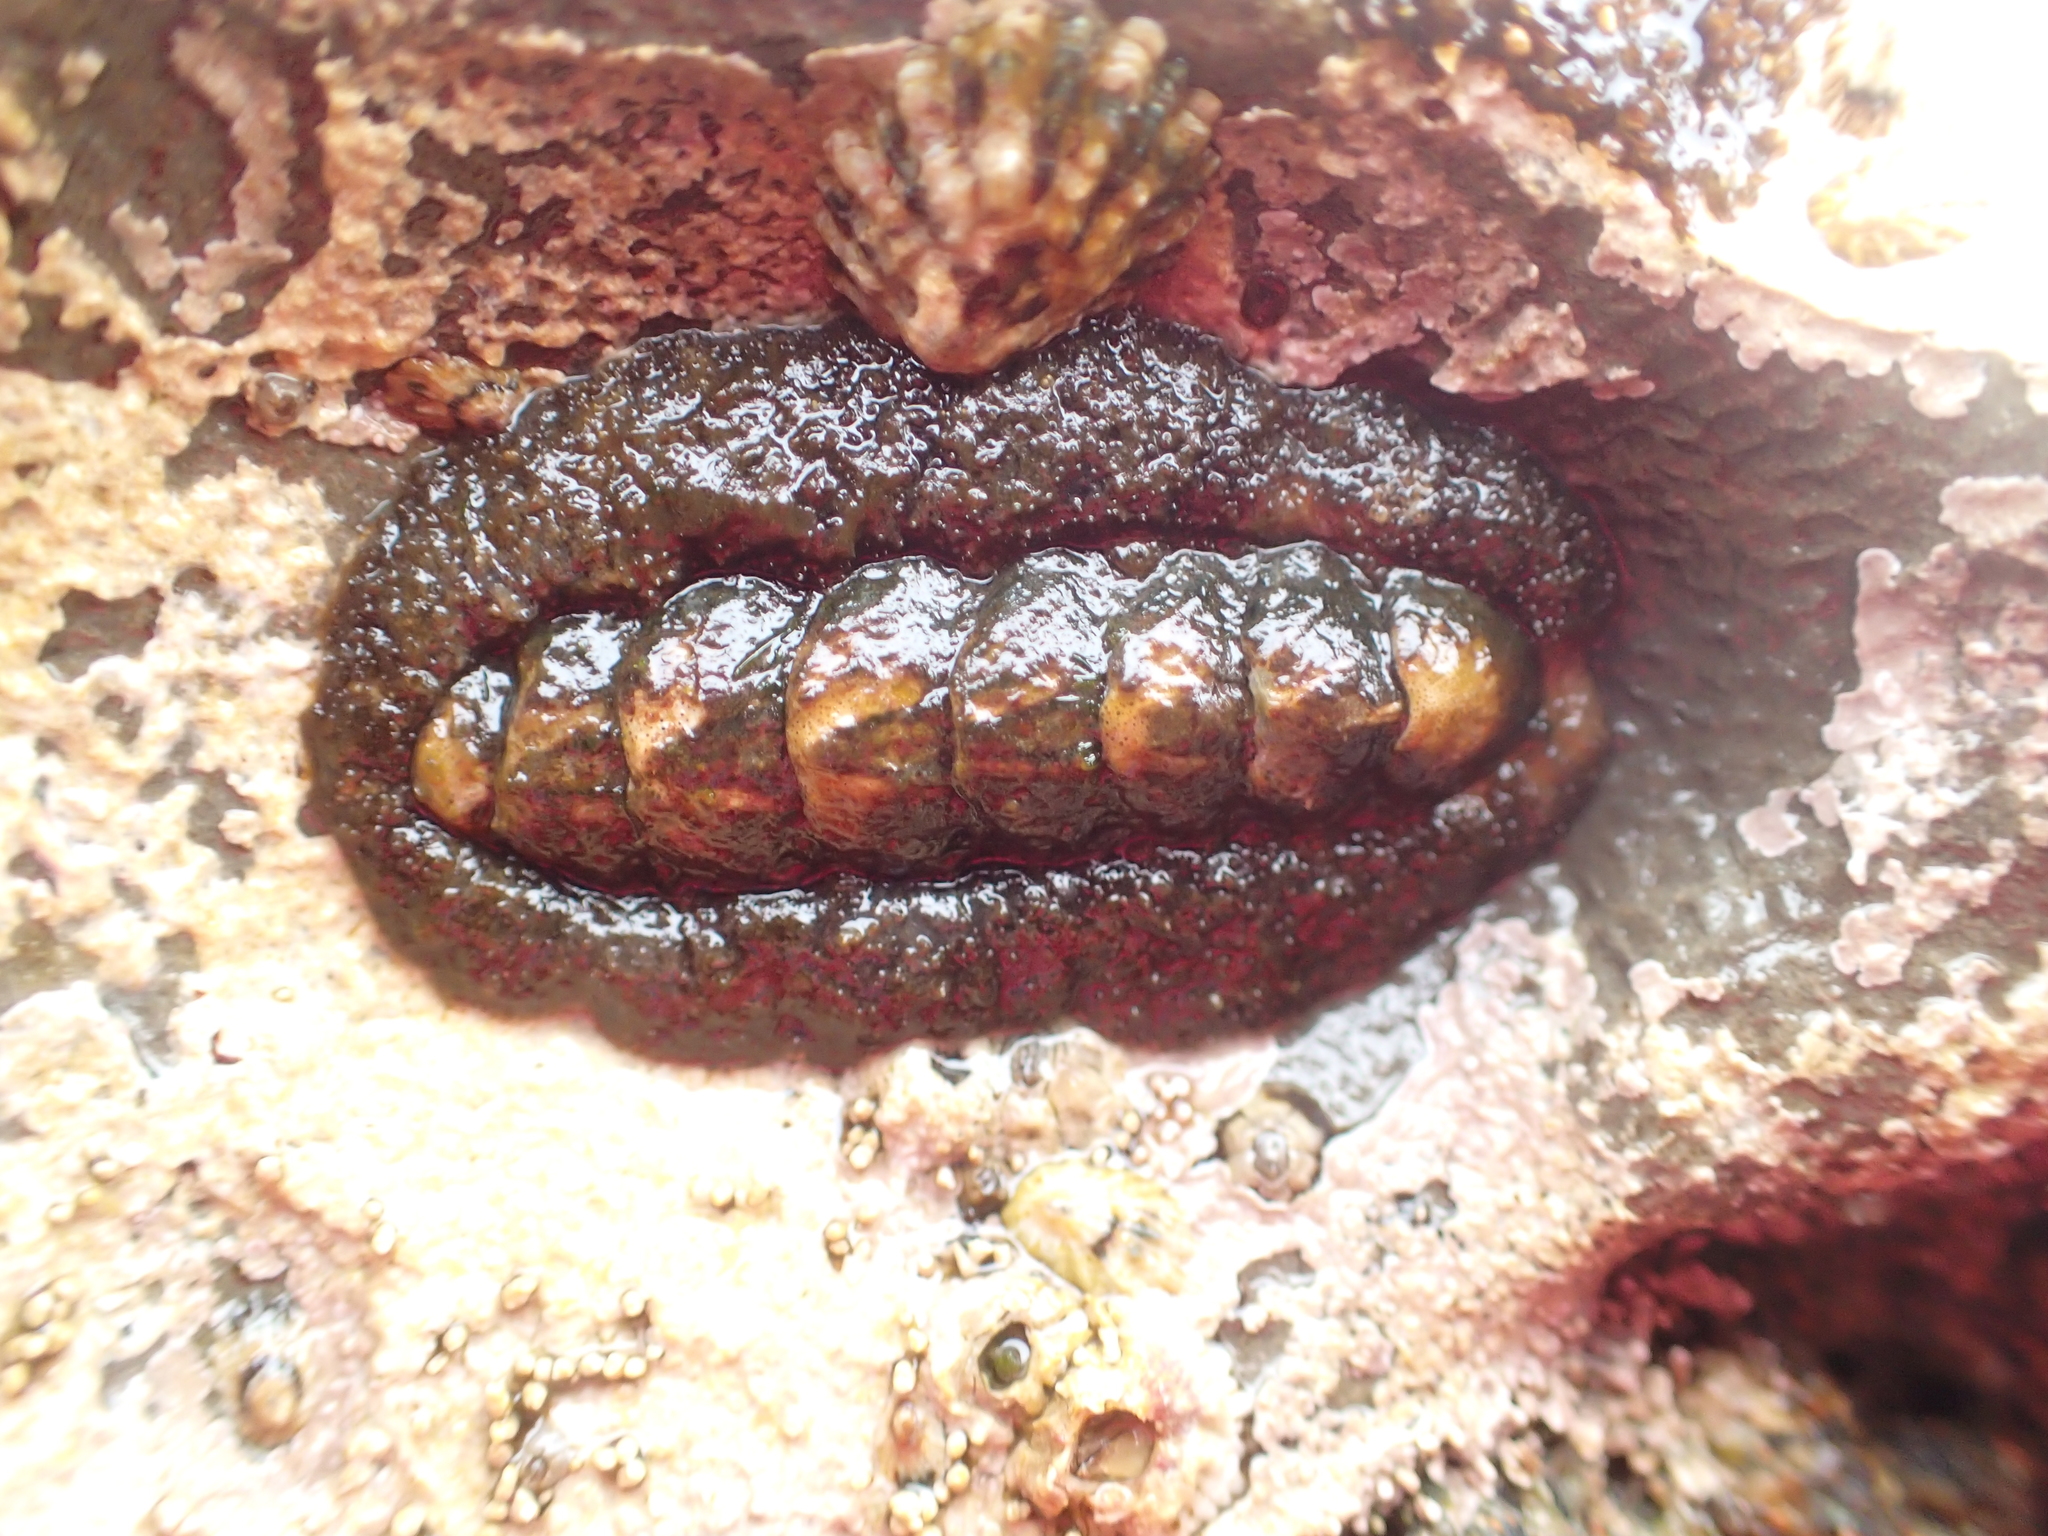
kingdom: Animalia
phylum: Mollusca
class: Polyplacophora
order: Chitonida
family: Tonicellidae
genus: Nuttallina
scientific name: Nuttallina californica
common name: California nuttall chiton
